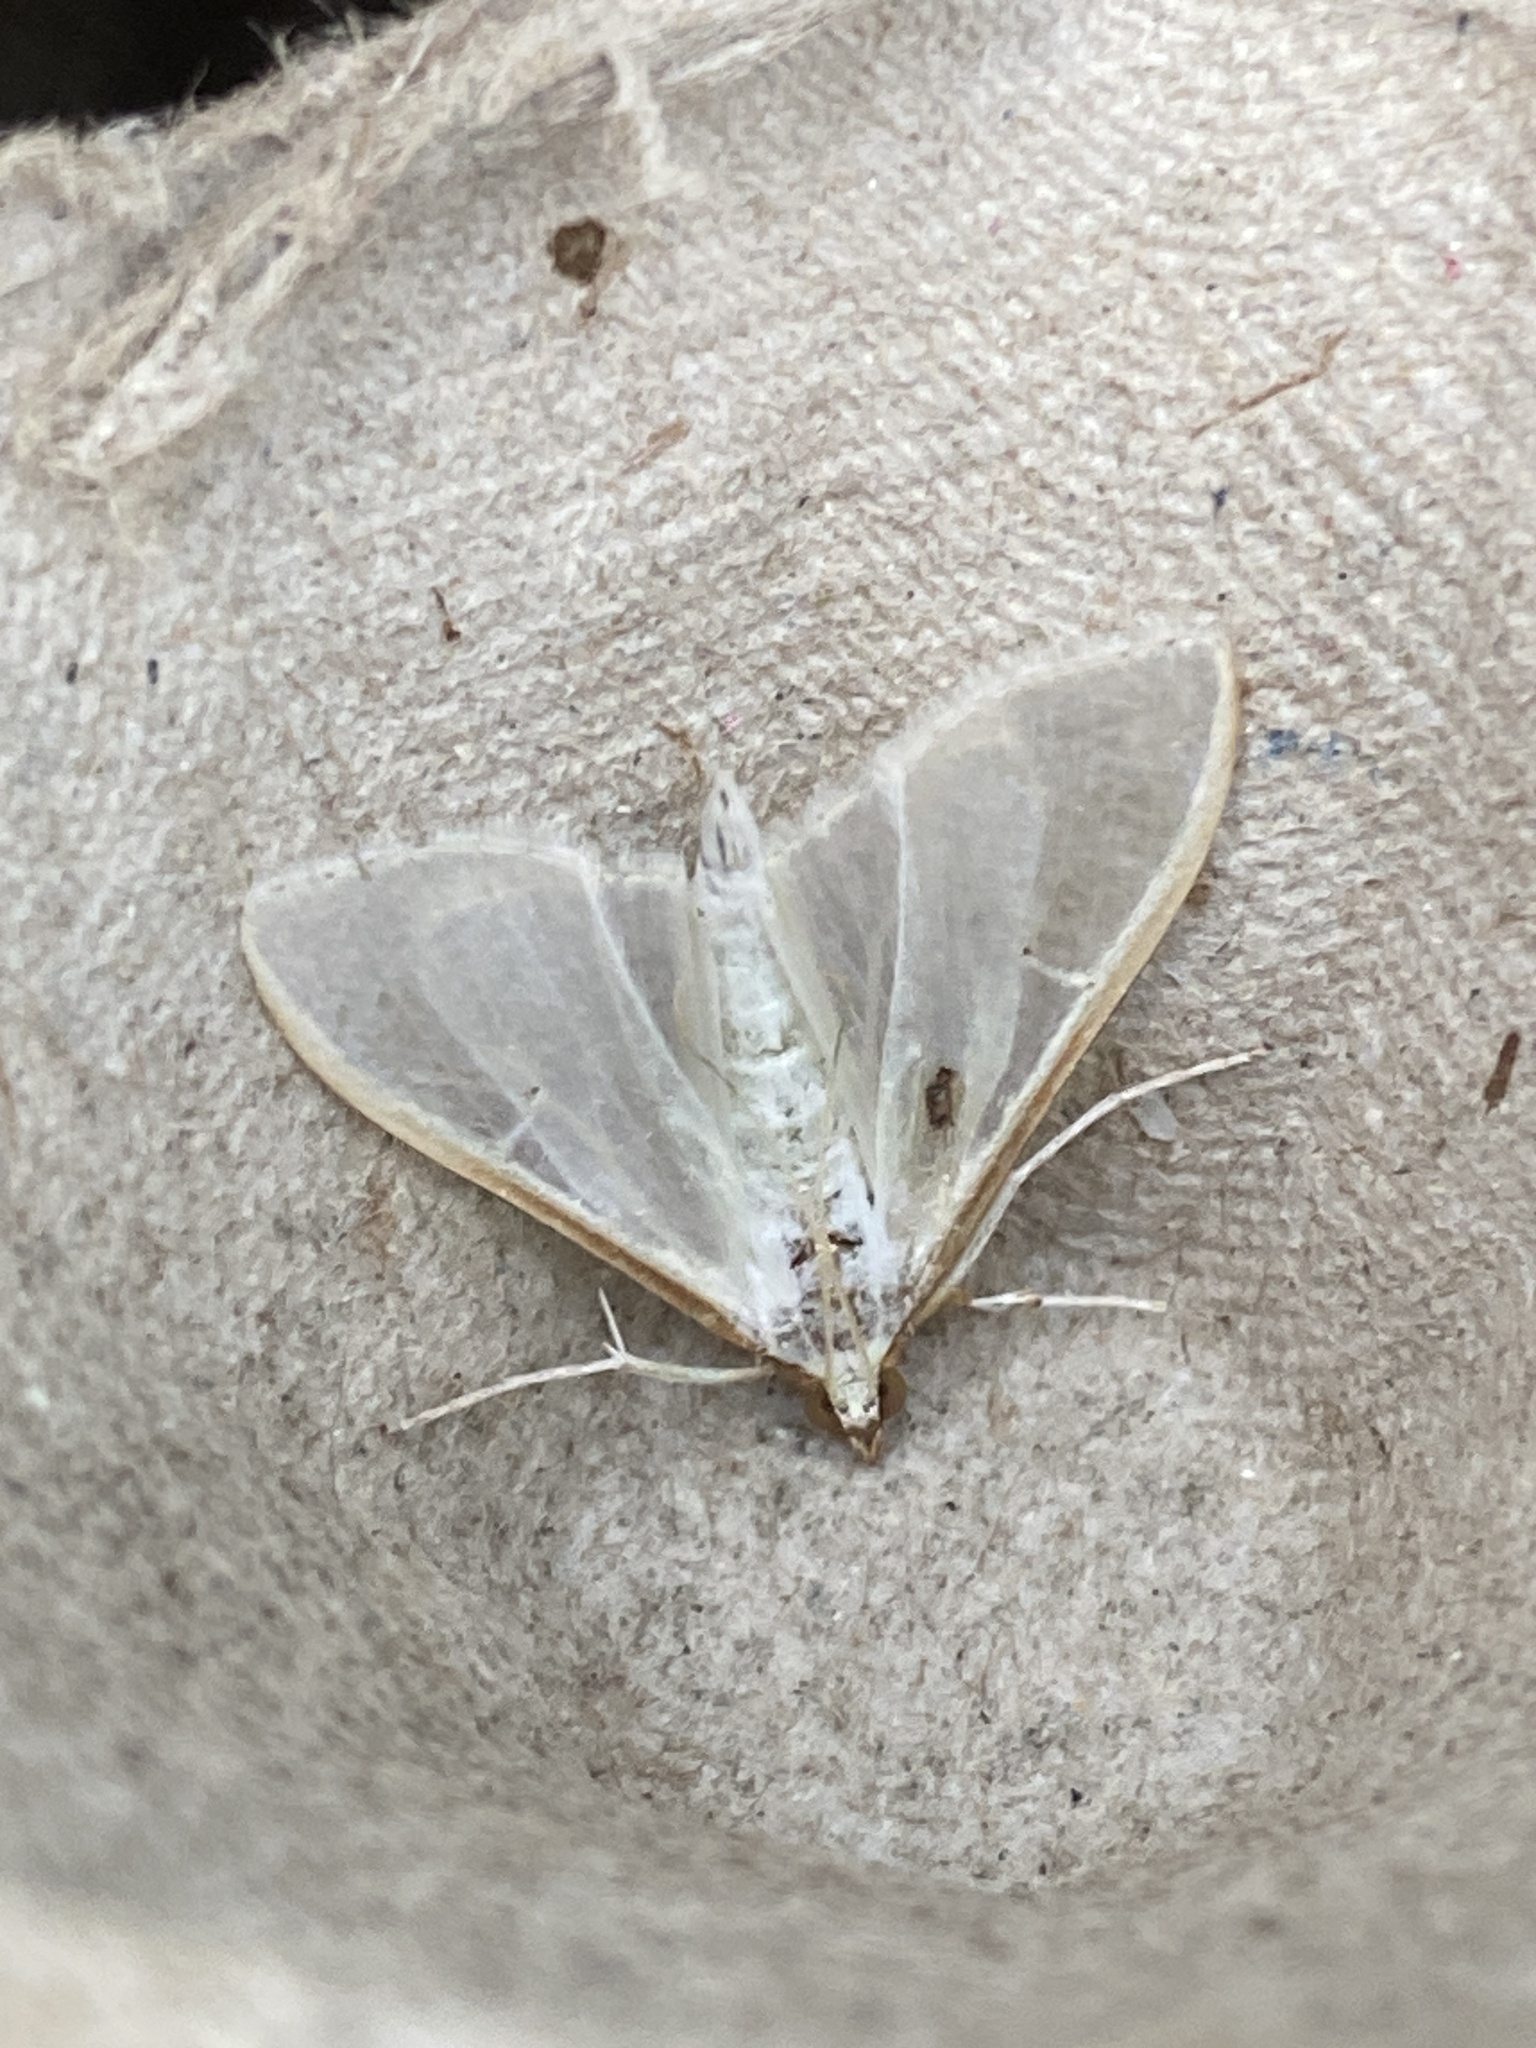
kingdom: Animalia
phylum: Arthropoda
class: Insecta
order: Lepidoptera
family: Crambidae
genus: Palpita
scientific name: Palpita vitrealis
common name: Olive-tree pearl
